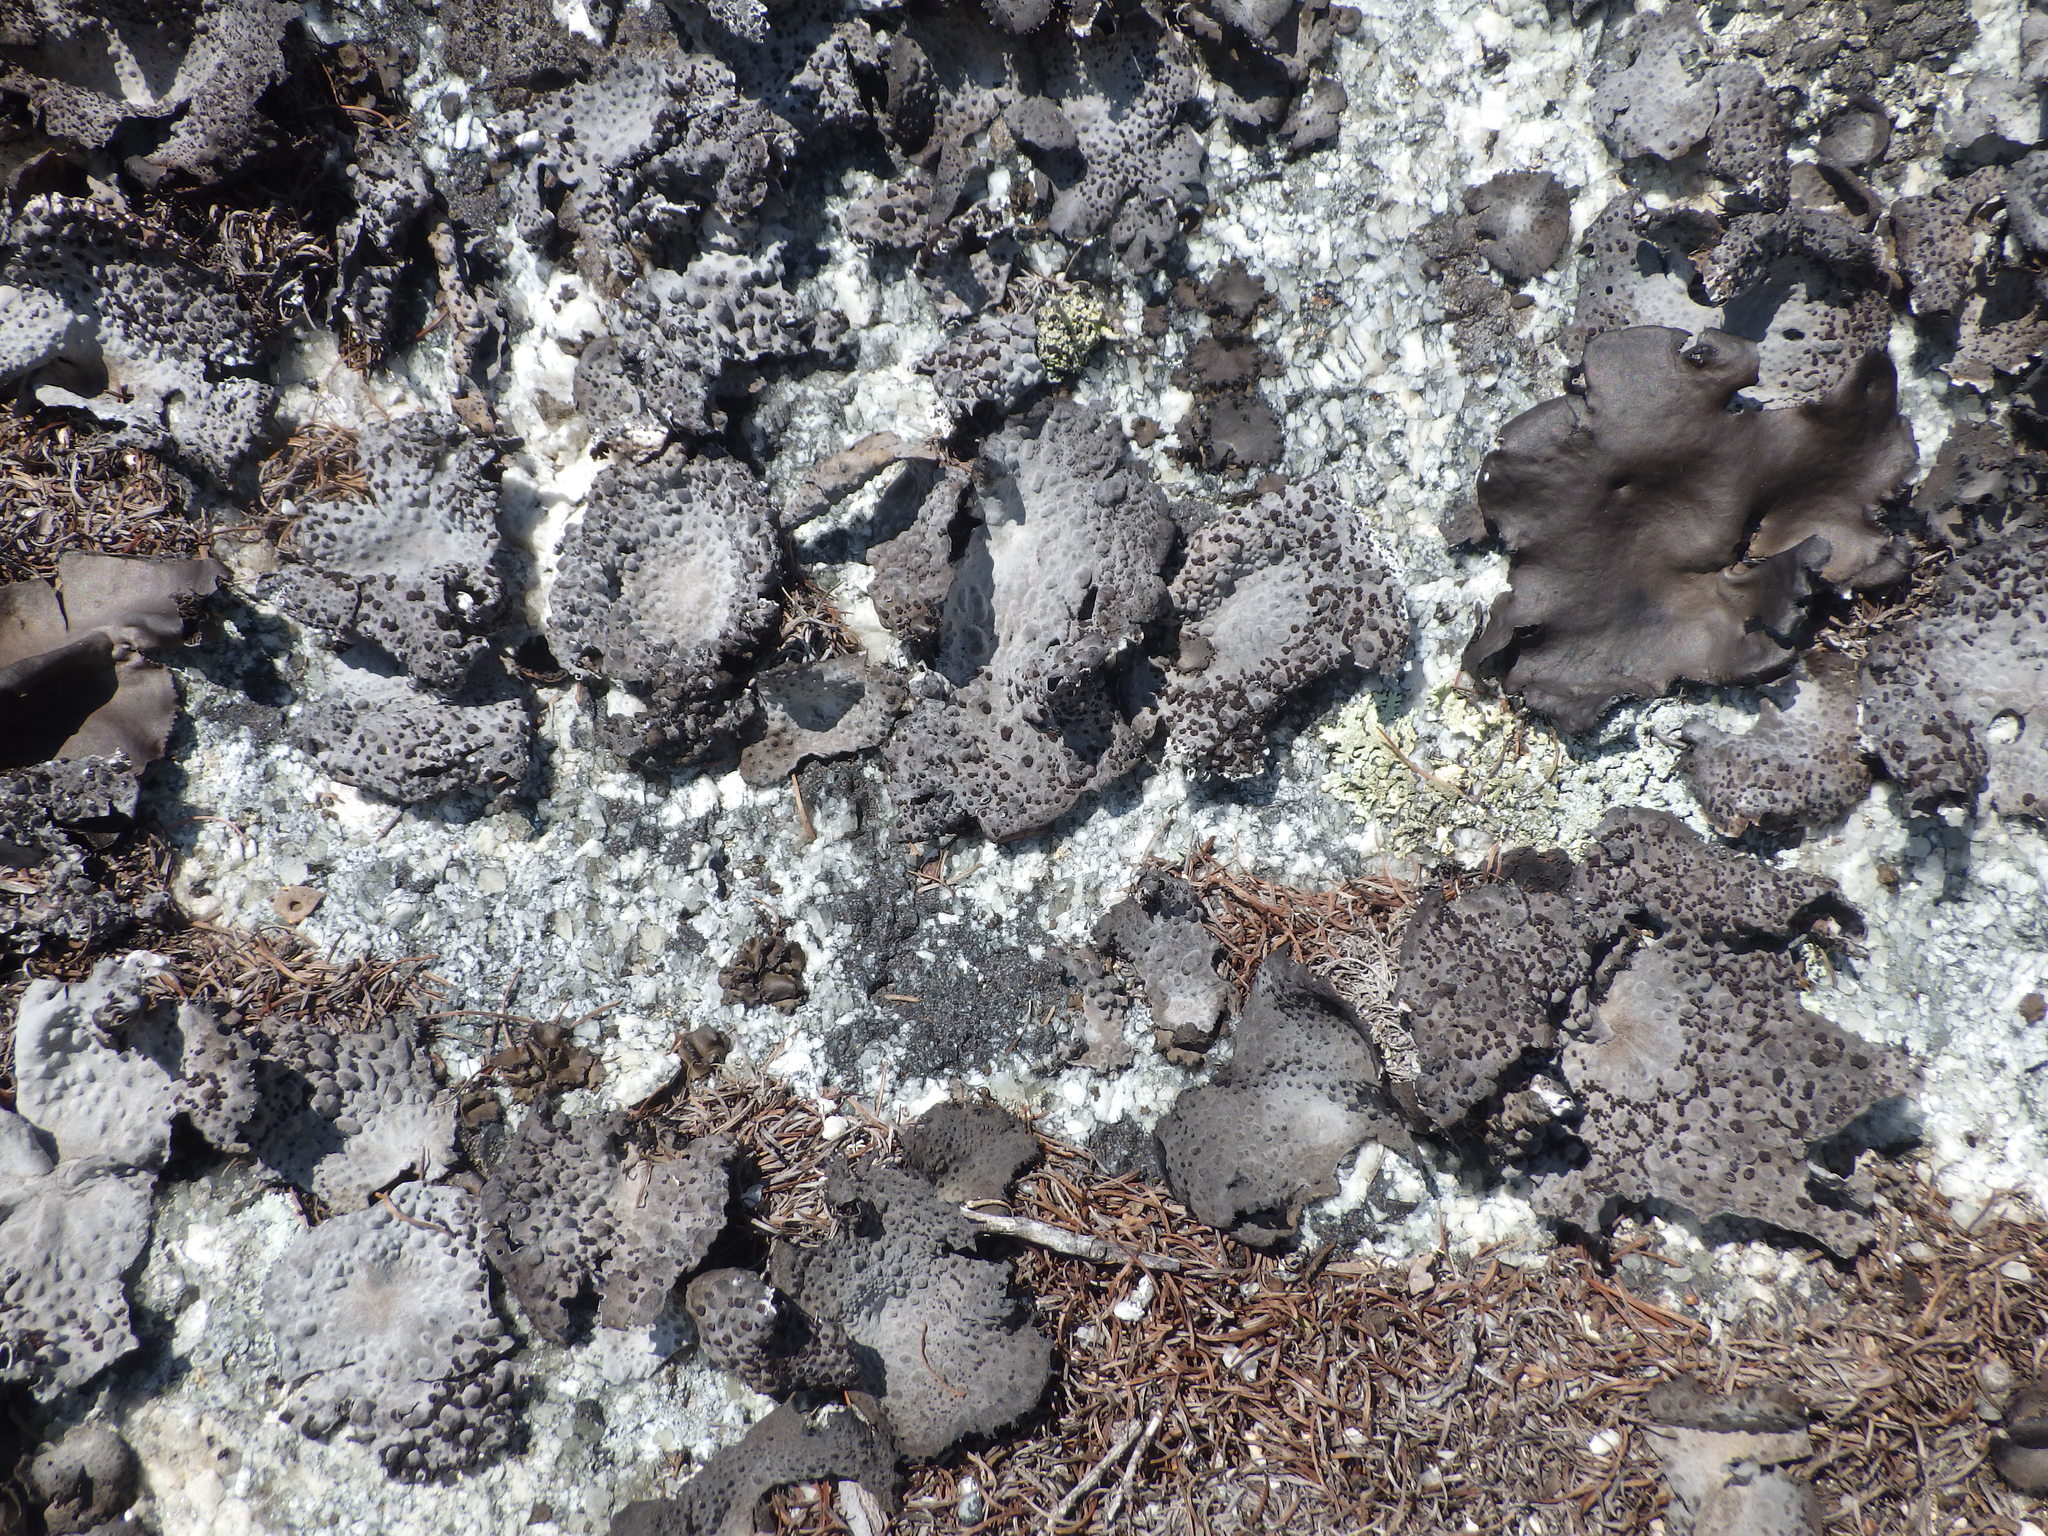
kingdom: Fungi
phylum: Ascomycota
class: Lecanoromycetes
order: Umbilicariales
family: Umbilicariaceae
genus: Lasallia
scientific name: Lasallia papulosa
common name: Common toadskin lichen
